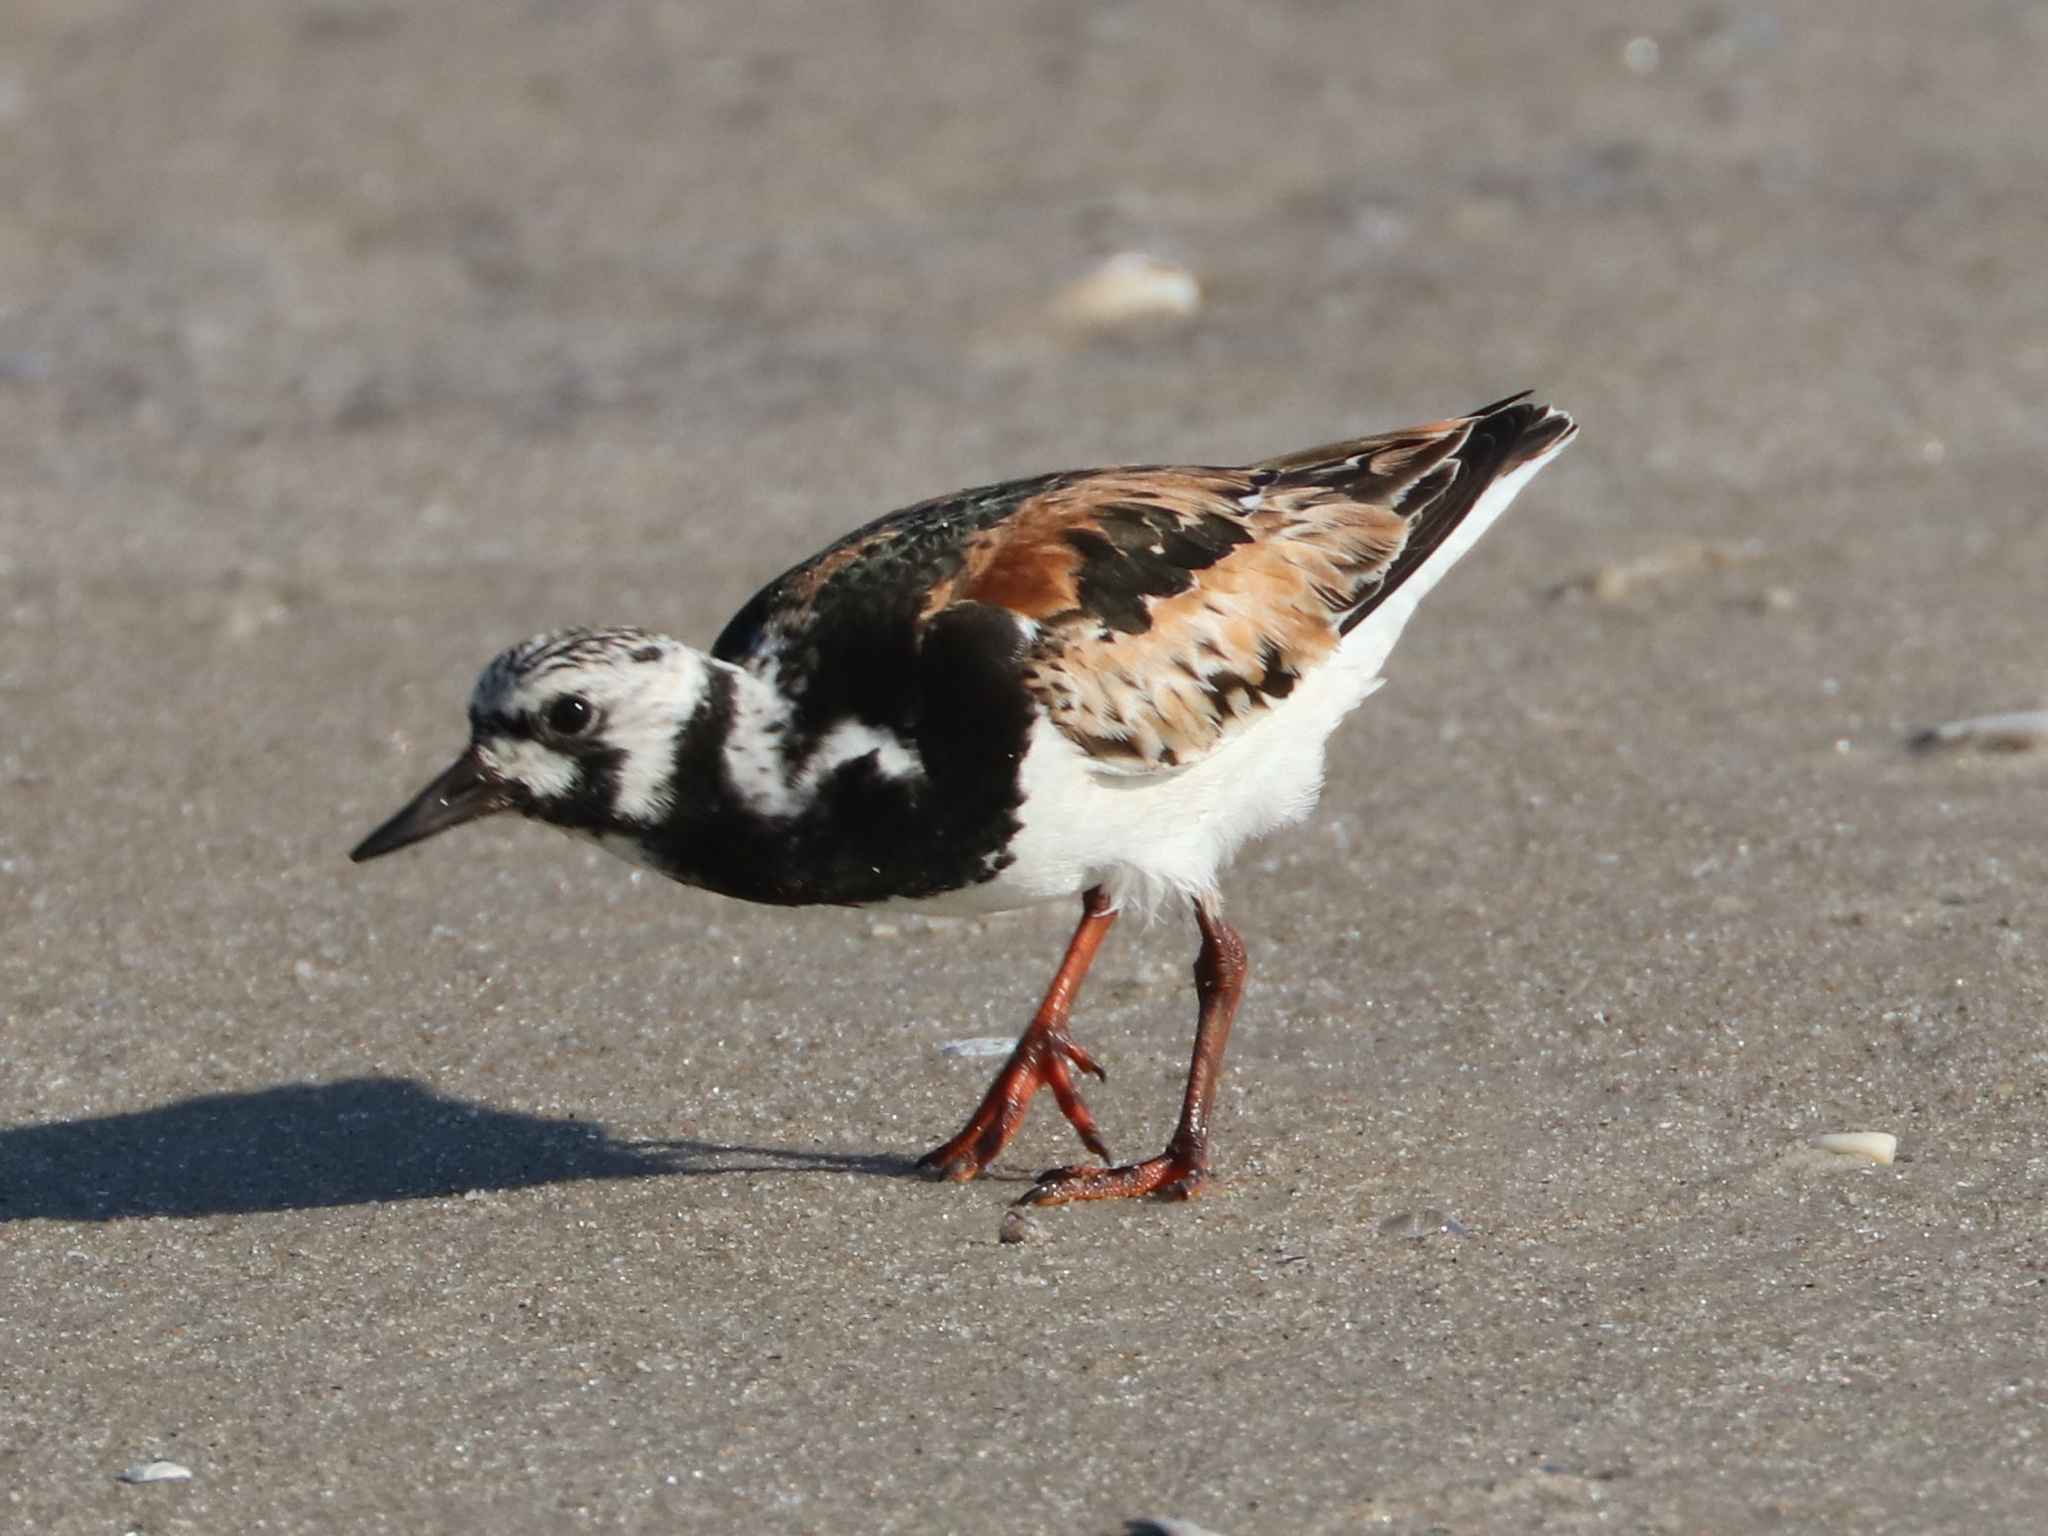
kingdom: Animalia
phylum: Chordata
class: Aves
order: Charadriiformes
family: Scolopacidae
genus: Arenaria
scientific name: Arenaria interpres
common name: Ruddy turnstone
